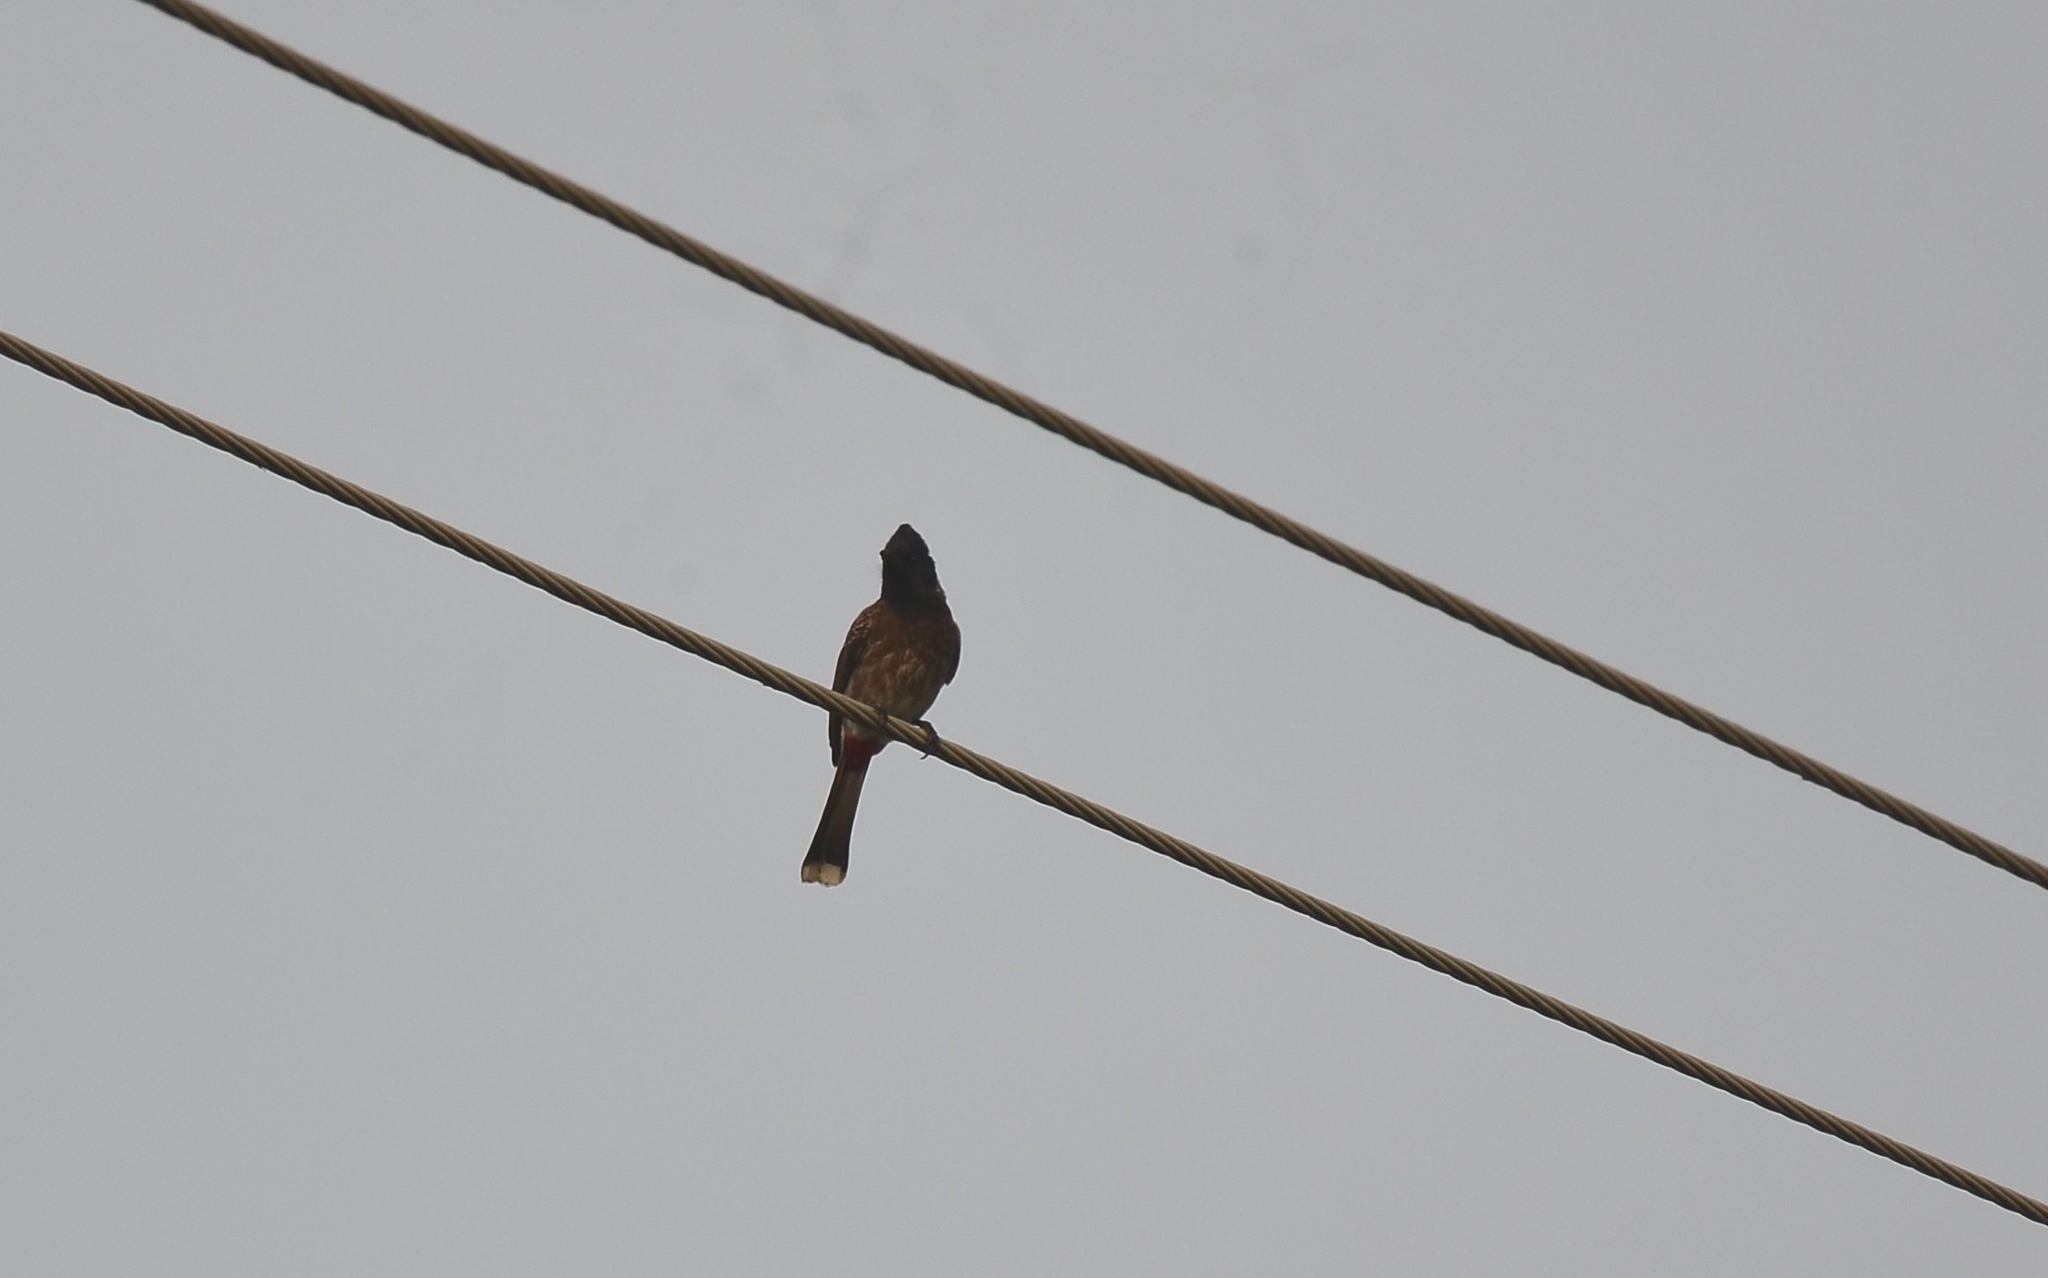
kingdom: Animalia
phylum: Chordata
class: Aves
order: Passeriformes
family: Pycnonotidae
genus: Pycnonotus
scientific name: Pycnonotus cafer
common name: Red-vented bulbul
